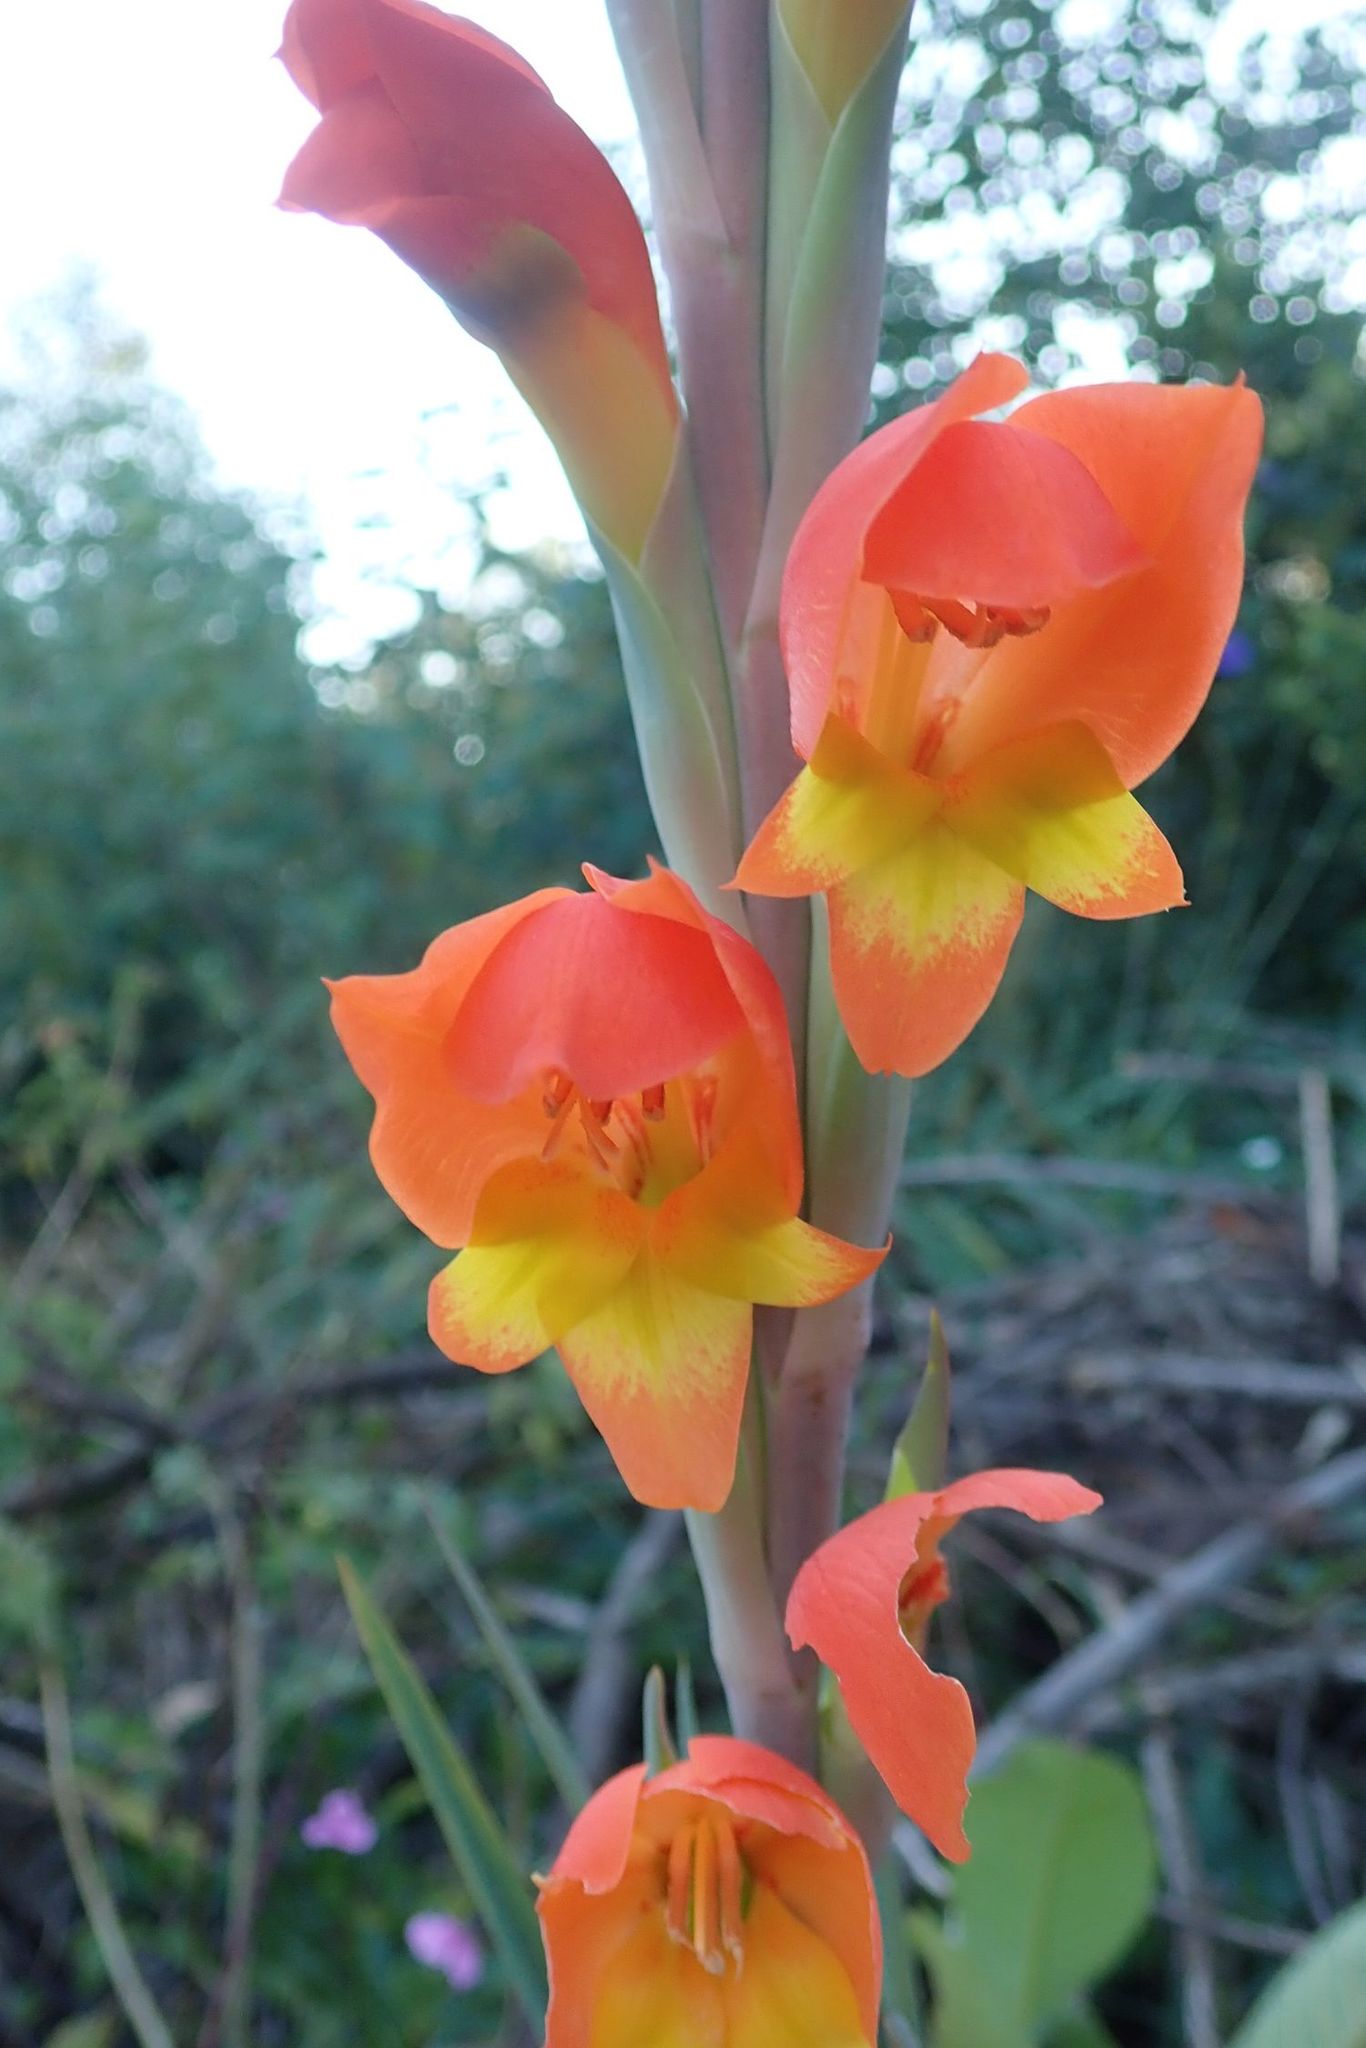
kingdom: Plantae
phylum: Tracheophyta
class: Liliopsida
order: Asparagales
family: Iridaceae
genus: Gladiolus
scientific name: Gladiolus dalenii
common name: Cornflag
